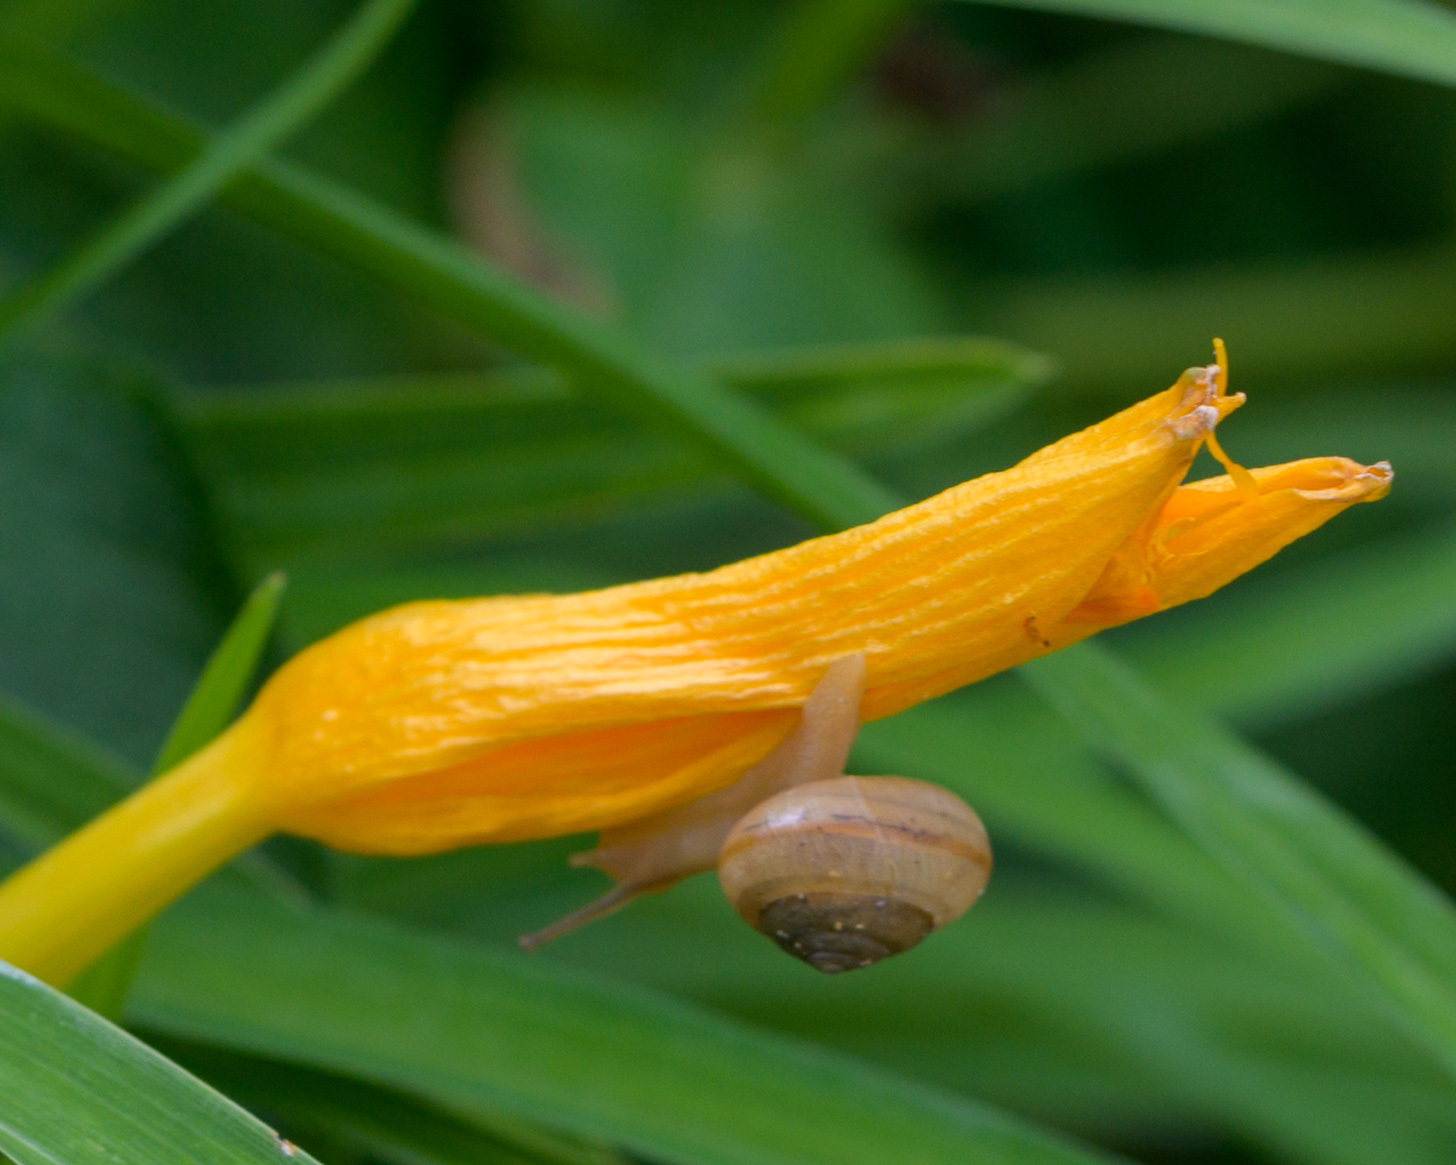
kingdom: Animalia
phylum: Mollusca
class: Gastropoda
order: Stylommatophora
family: Camaenidae
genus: Bradybaena
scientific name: Bradybaena similaris
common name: Asian trampsnail
